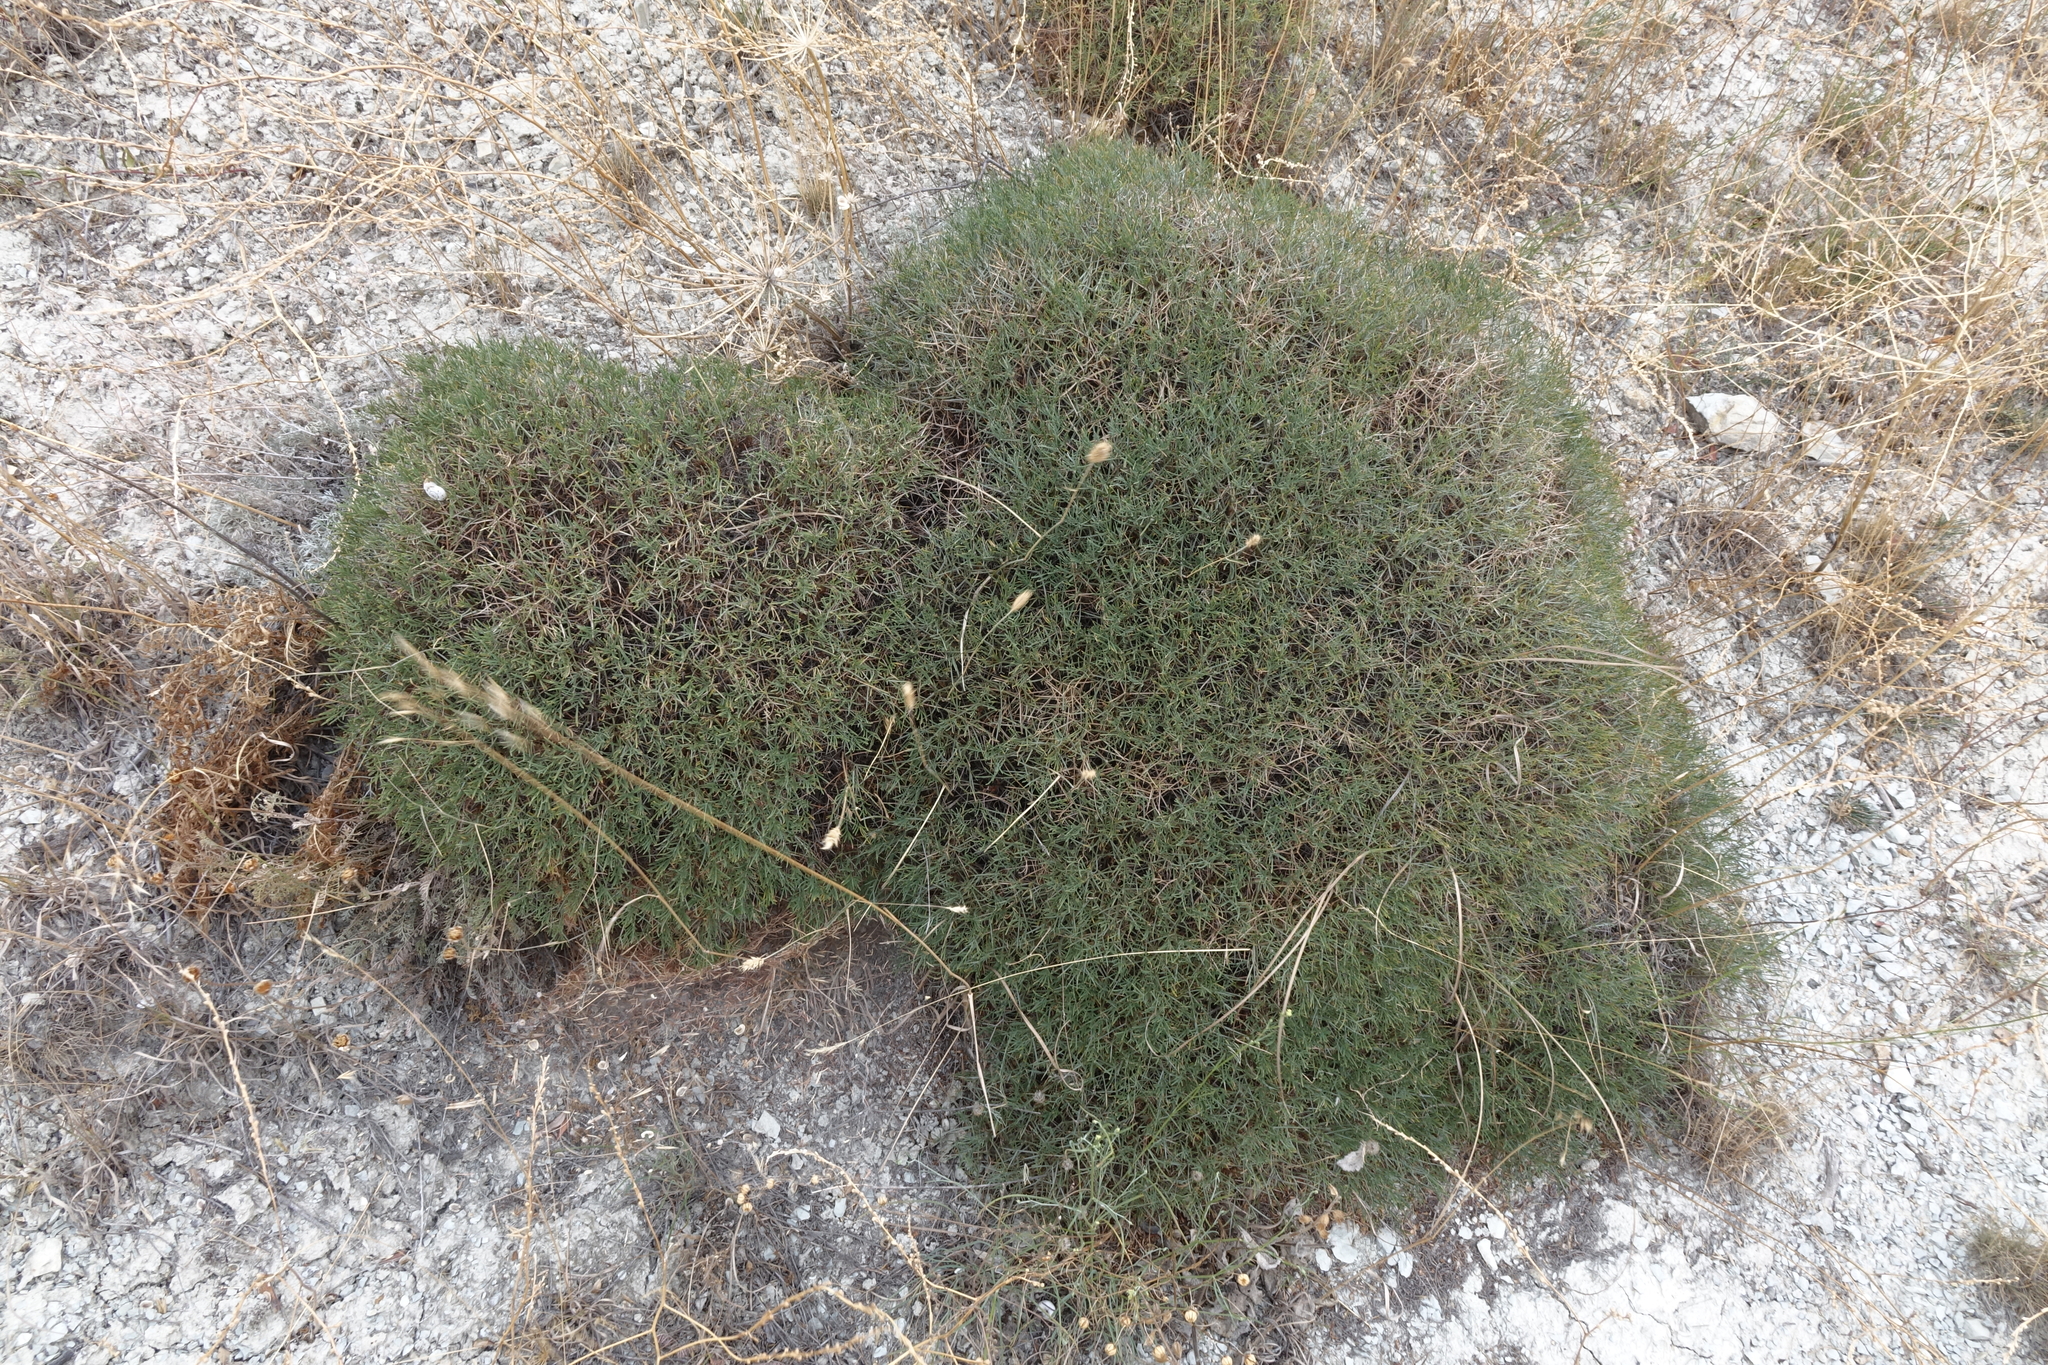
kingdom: Plantae
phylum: Tracheophyta
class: Magnoliopsida
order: Fabales
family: Fabaceae
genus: Onobrychis
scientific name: Onobrychis cornuta
